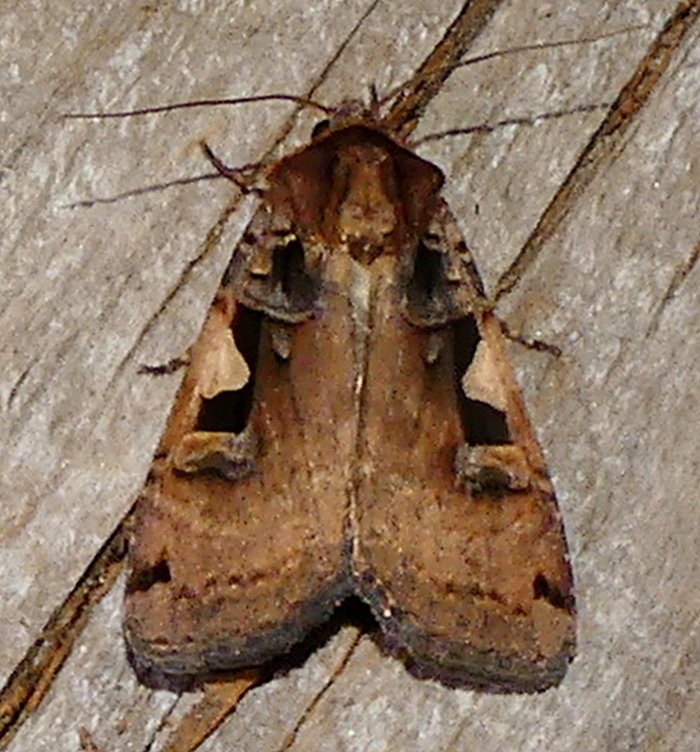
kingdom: Animalia
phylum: Arthropoda
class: Insecta
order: Lepidoptera
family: Noctuidae
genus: Xestia
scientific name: Xestia
